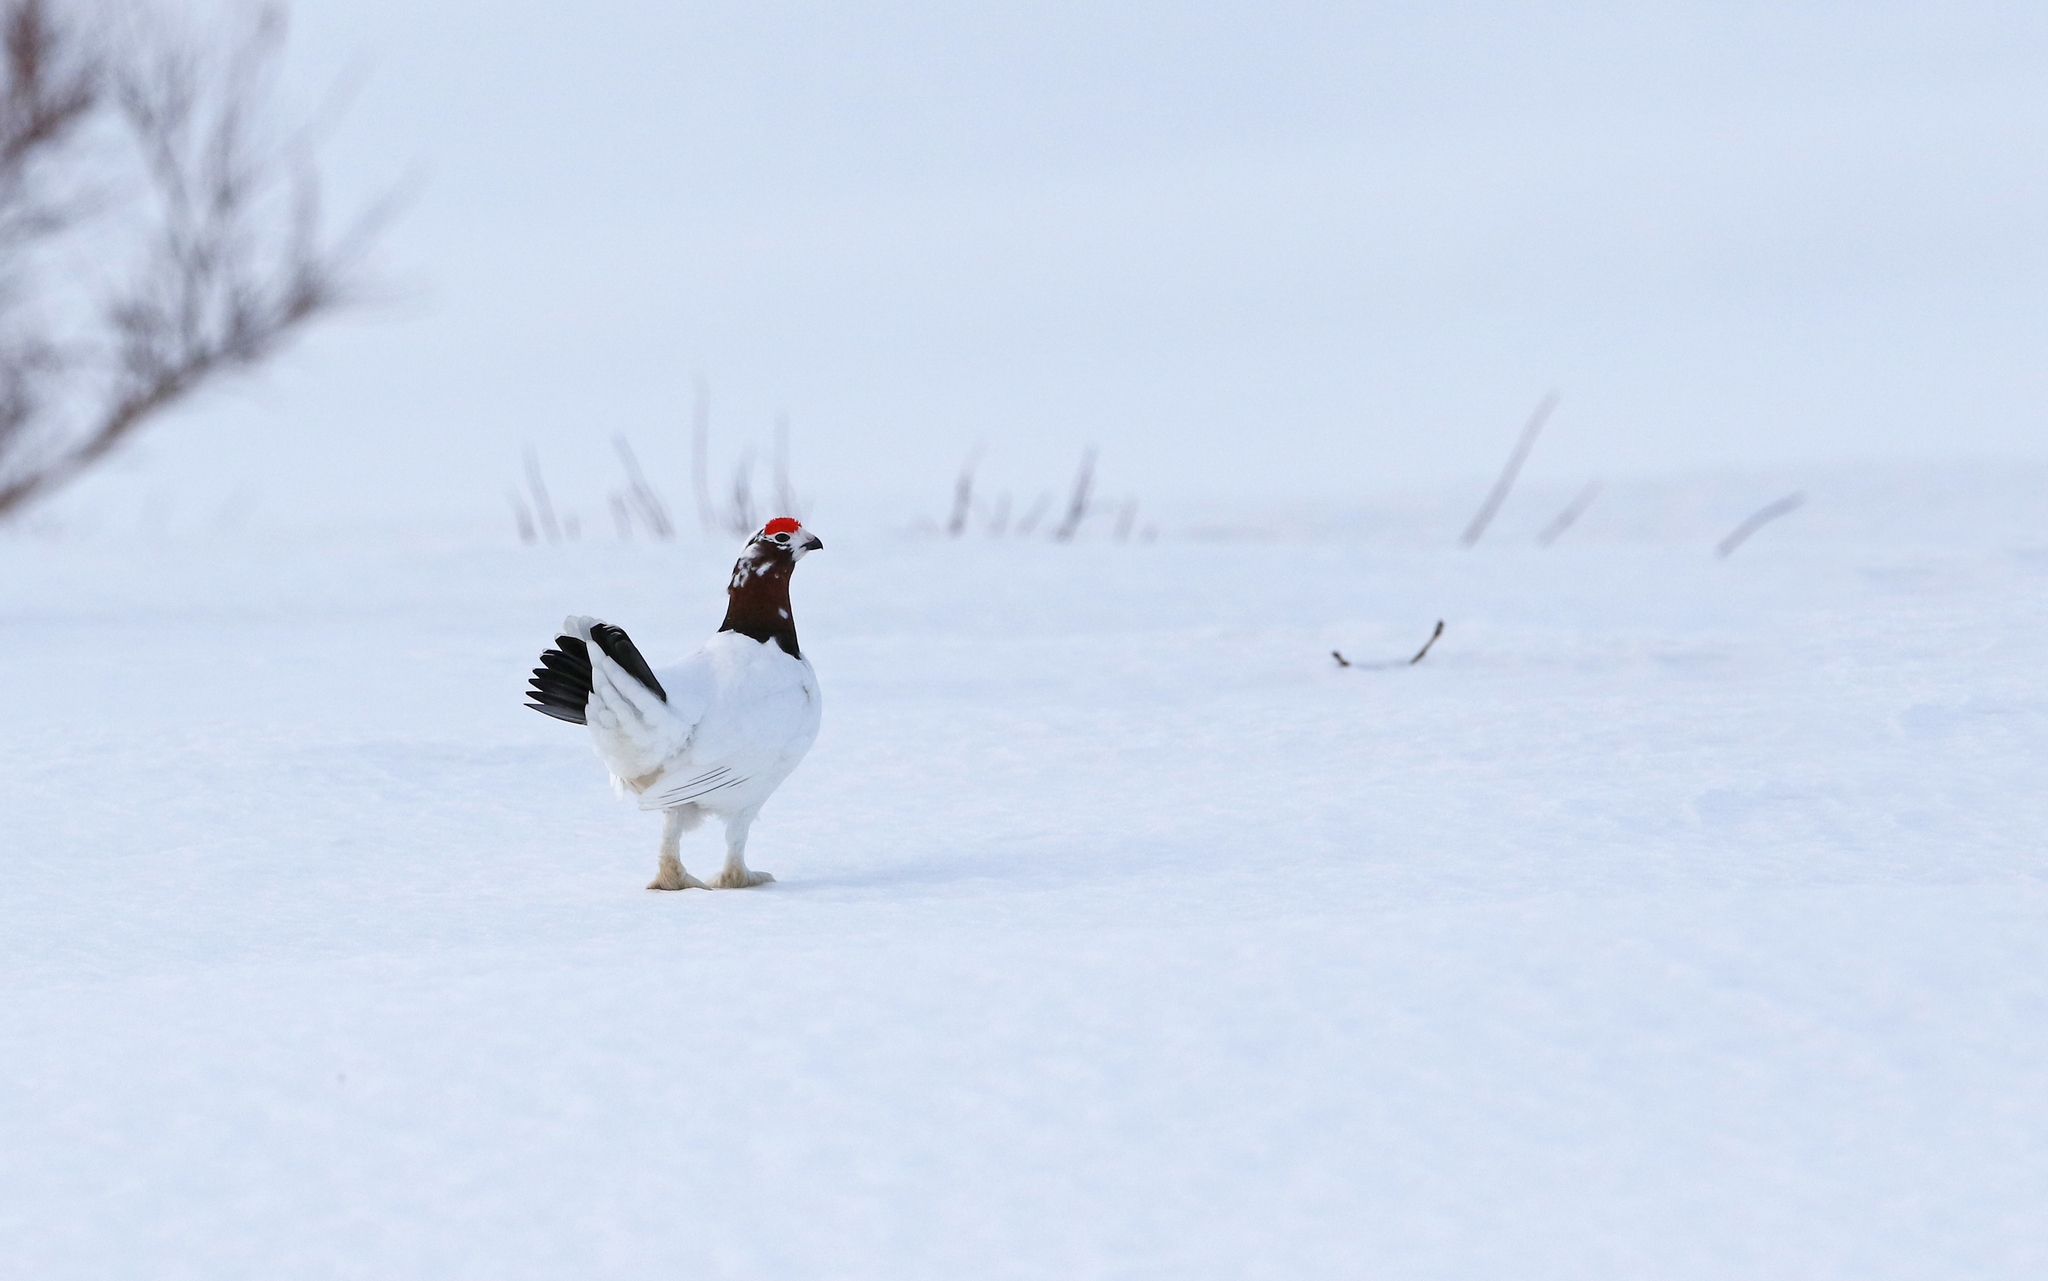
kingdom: Animalia
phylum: Chordata
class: Aves
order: Galliformes
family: Phasianidae
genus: Lagopus
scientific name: Lagopus lagopus
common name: Willow ptarmigan
